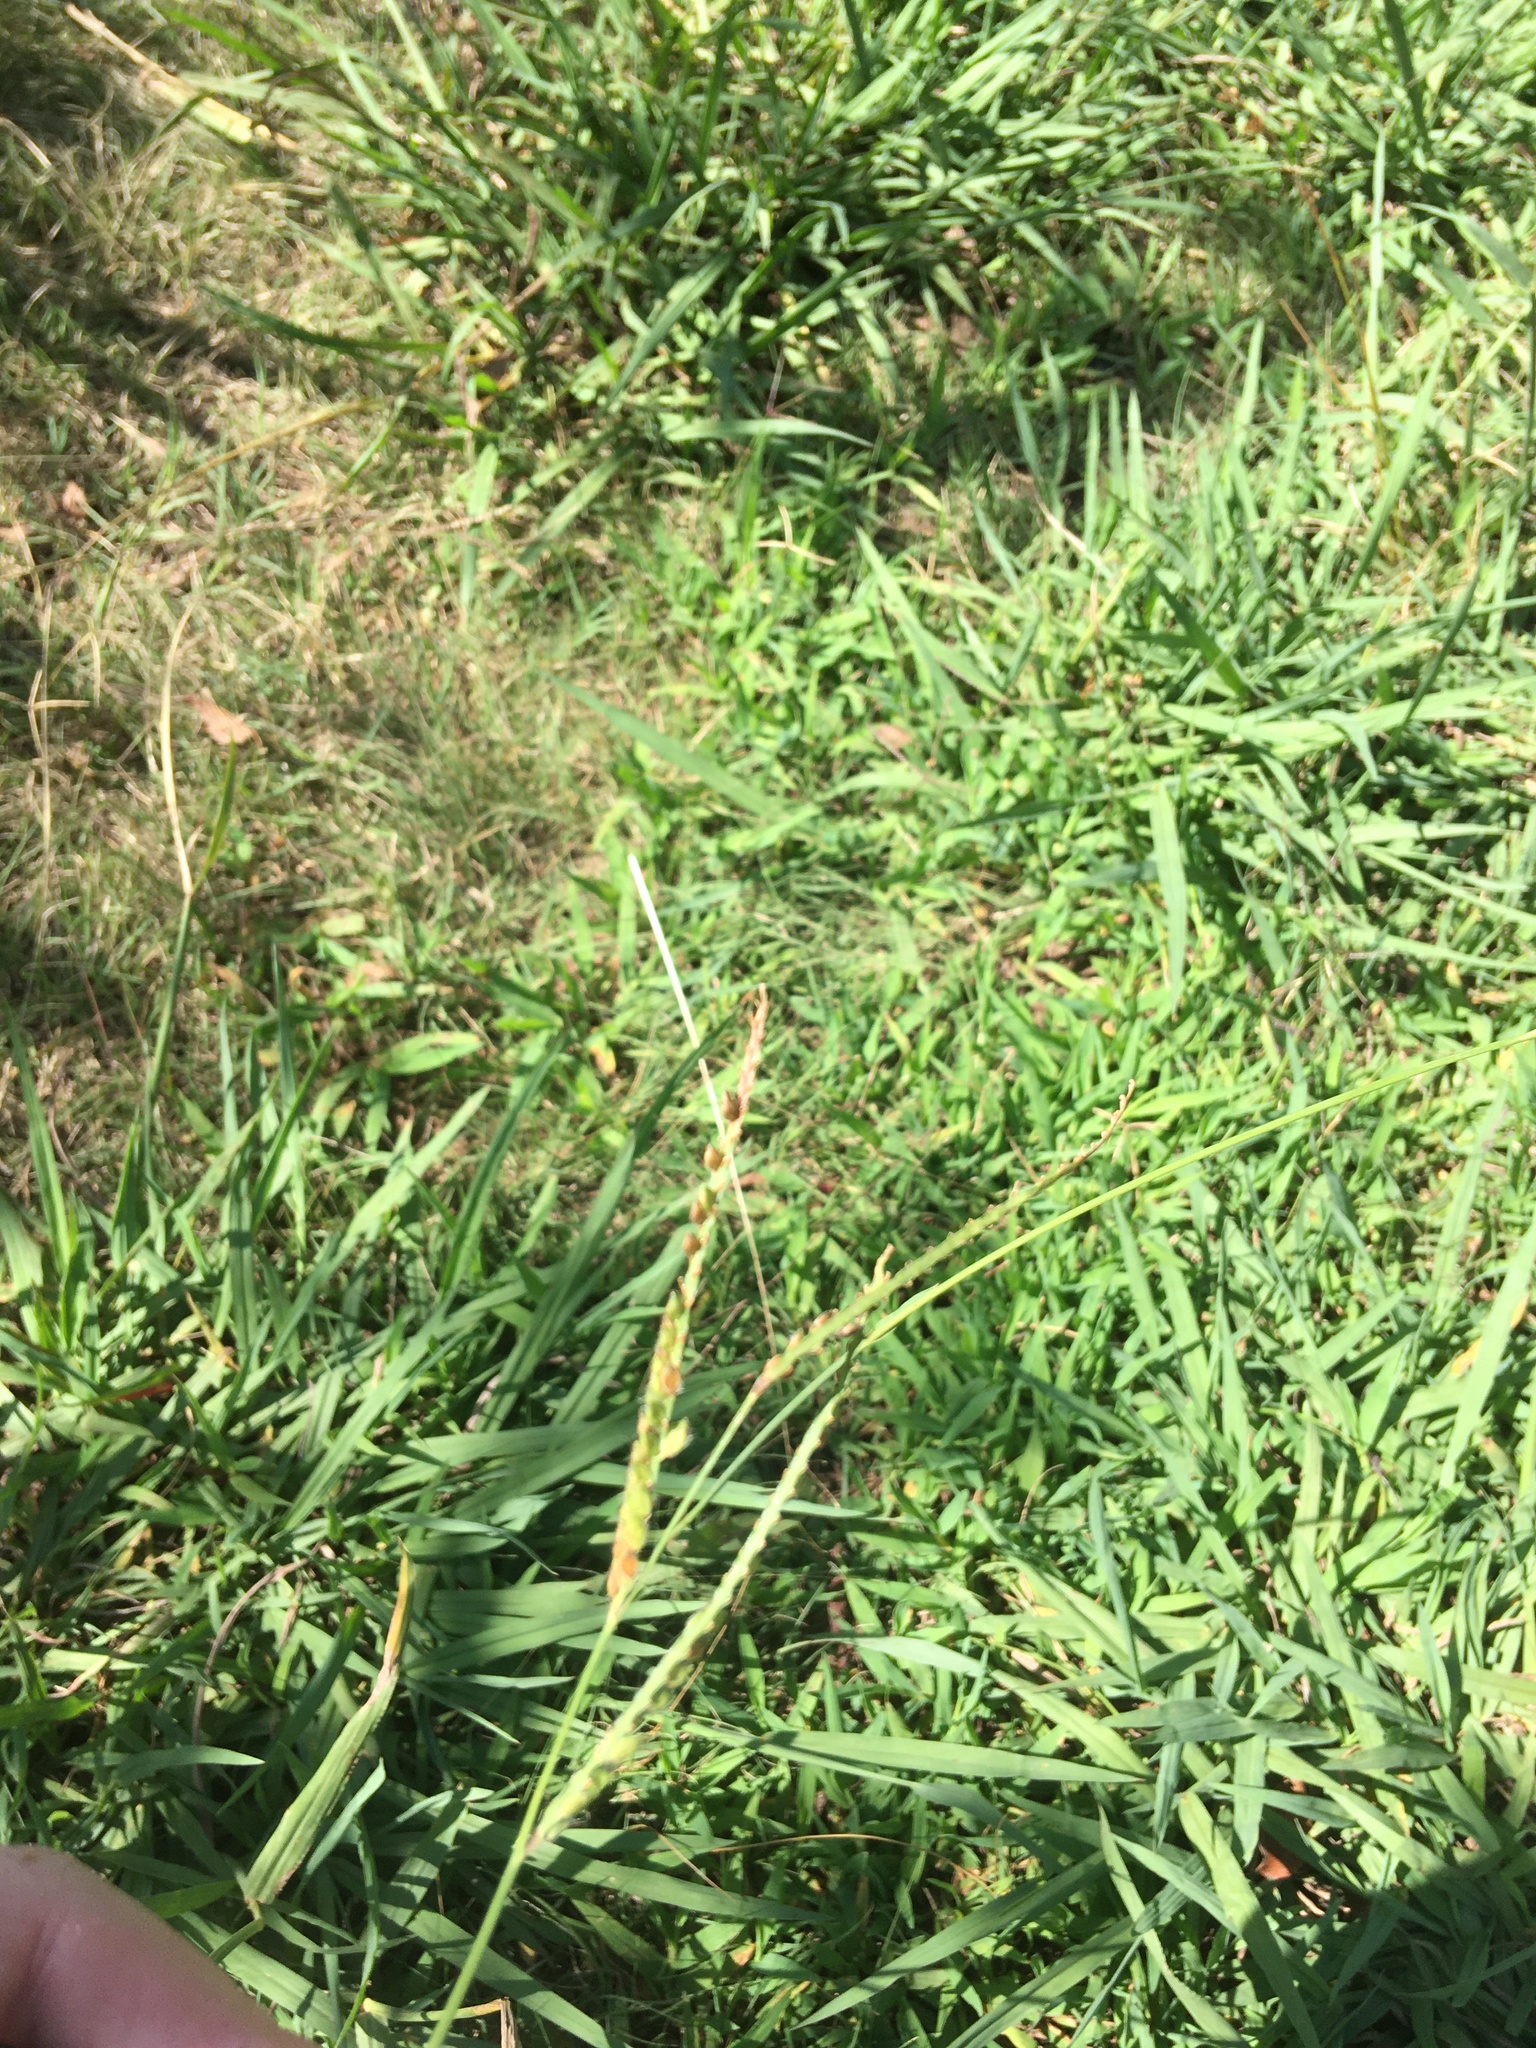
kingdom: Plantae
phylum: Tracheophyta
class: Liliopsida
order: Poales
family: Poaceae
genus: Paspalum
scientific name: Paspalum dilatatum
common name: Dallisgrass
